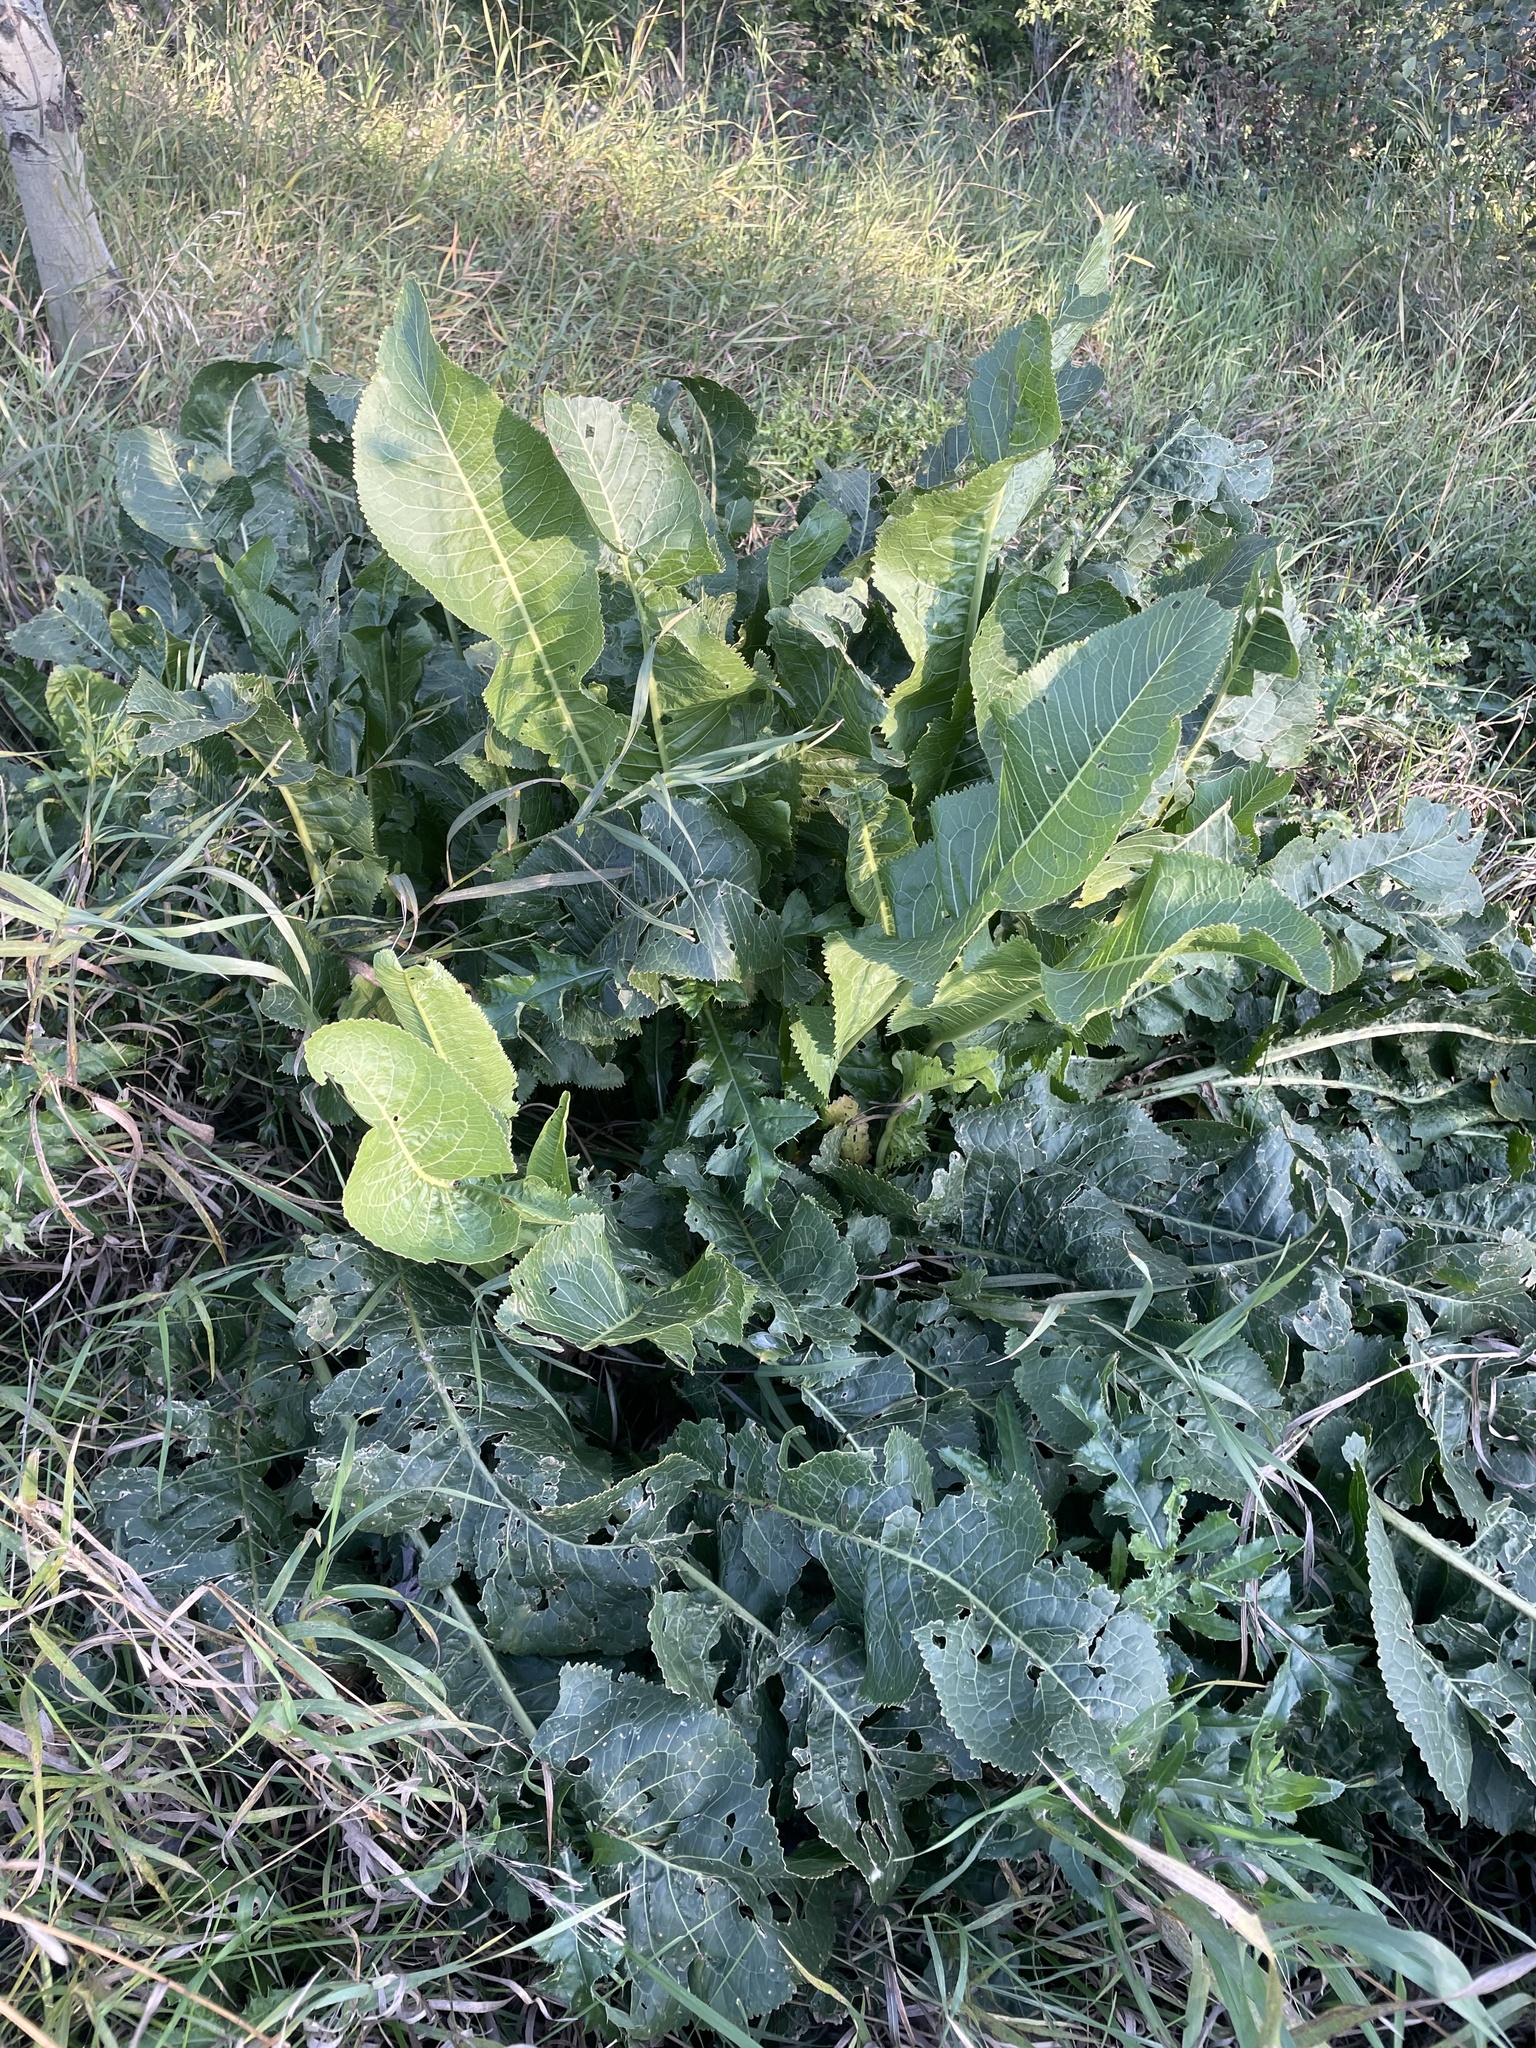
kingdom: Plantae
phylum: Tracheophyta
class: Magnoliopsida
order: Brassicales
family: Brassicaceae
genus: Armoracia
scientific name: Armoracia rusticana
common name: Horseradish
